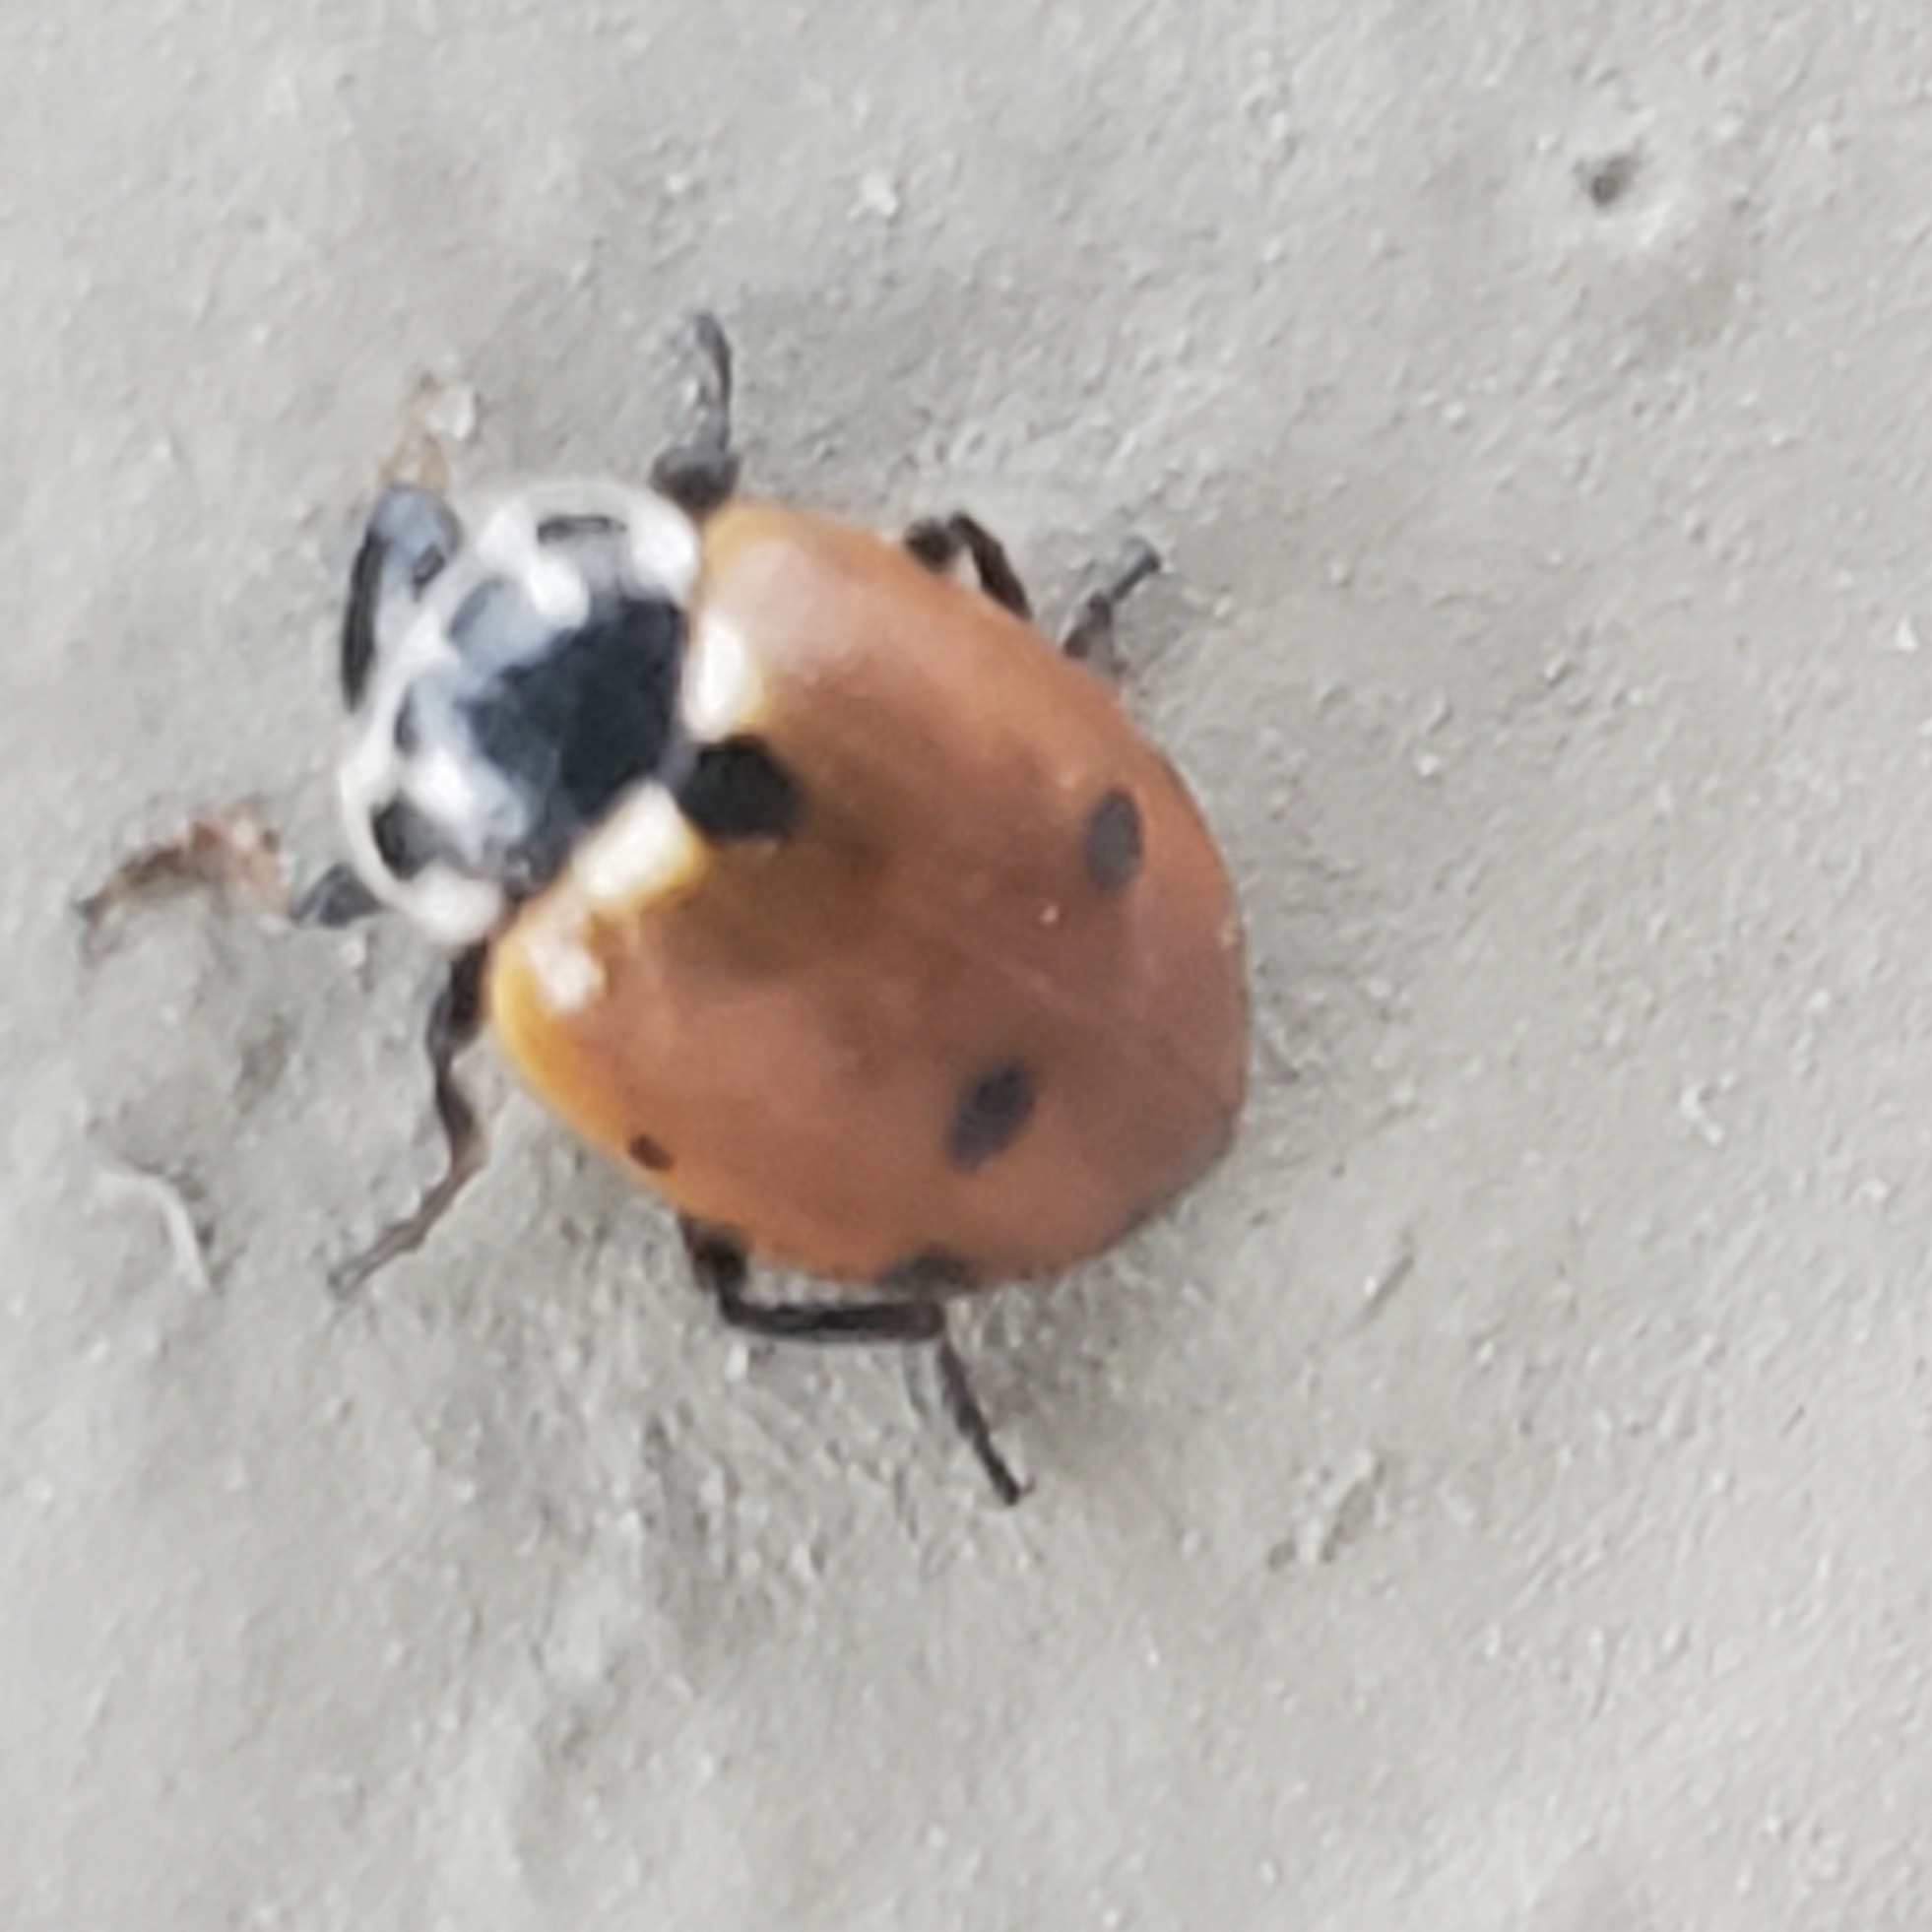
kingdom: Animalia
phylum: Arthropoda
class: Insecta
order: Coleoptera
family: Coccinellidae
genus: Hippodamia
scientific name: Hippodamia variegata
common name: Ladybird beetle
